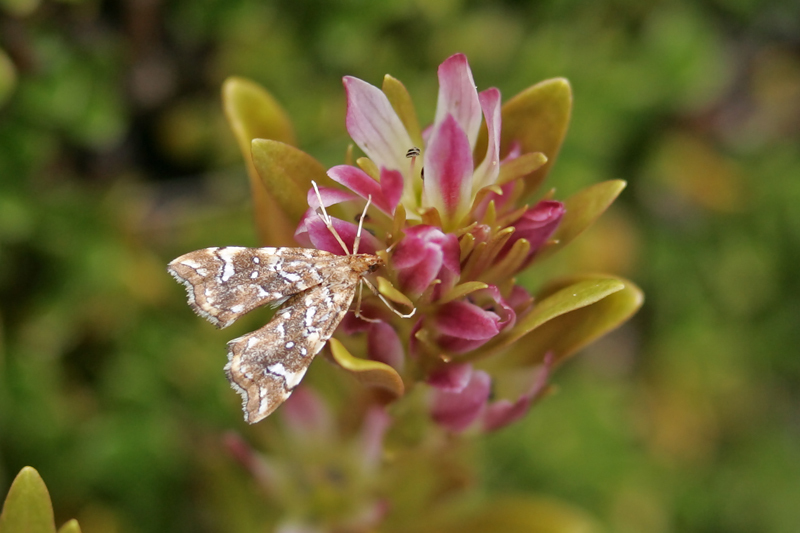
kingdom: Animalia
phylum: Arthropoda
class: Insecta
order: Lepidoptera
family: Pyralidae
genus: Musotima
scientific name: Musotima nitidalis
